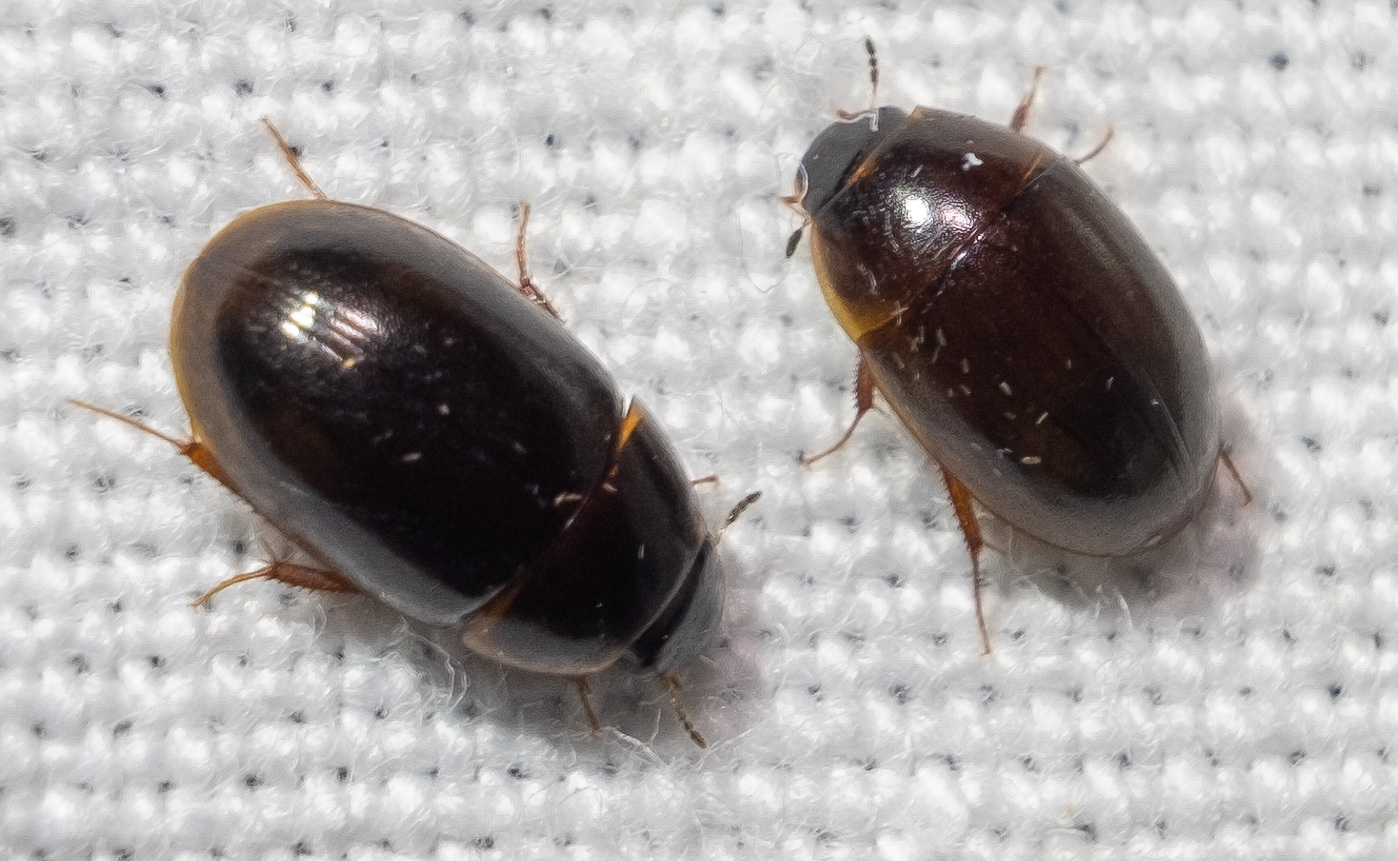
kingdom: Animalia
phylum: Arthropoda
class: Insecta
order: Coleoptera
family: Hydrophilidae
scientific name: Hydrophilidae
